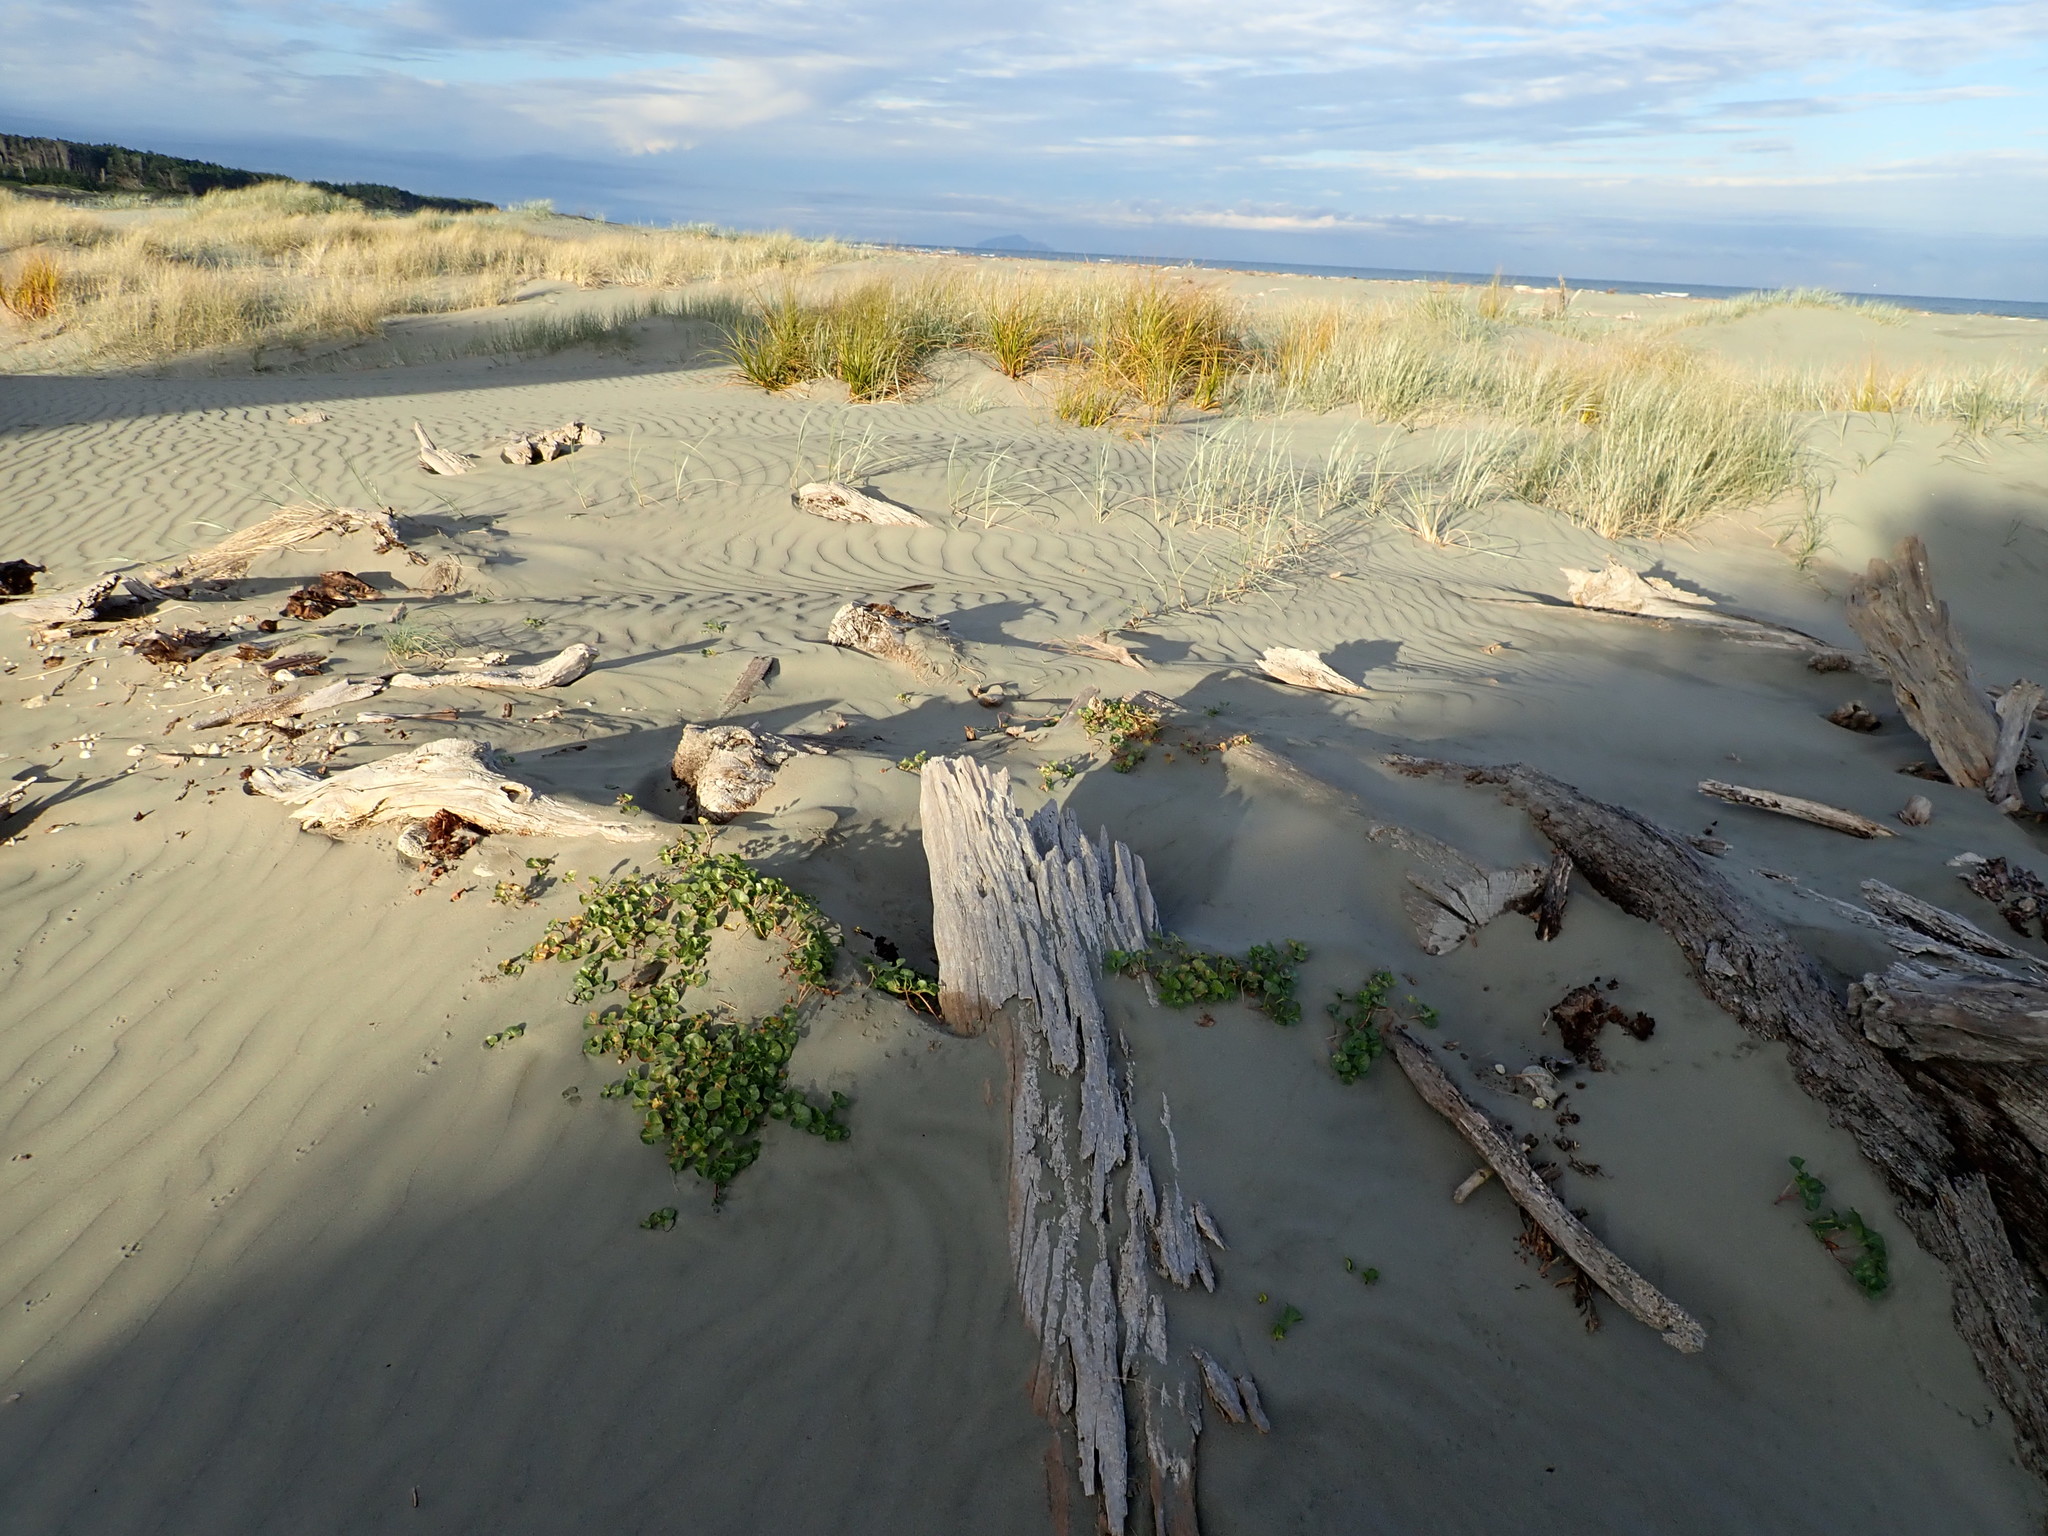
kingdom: Plantae
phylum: Tracheophyta
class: Magnoliopsida
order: Solanales
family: Convolvulaceae
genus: Calystegia
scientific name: Calystegia soldanella
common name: Sea bindweed
